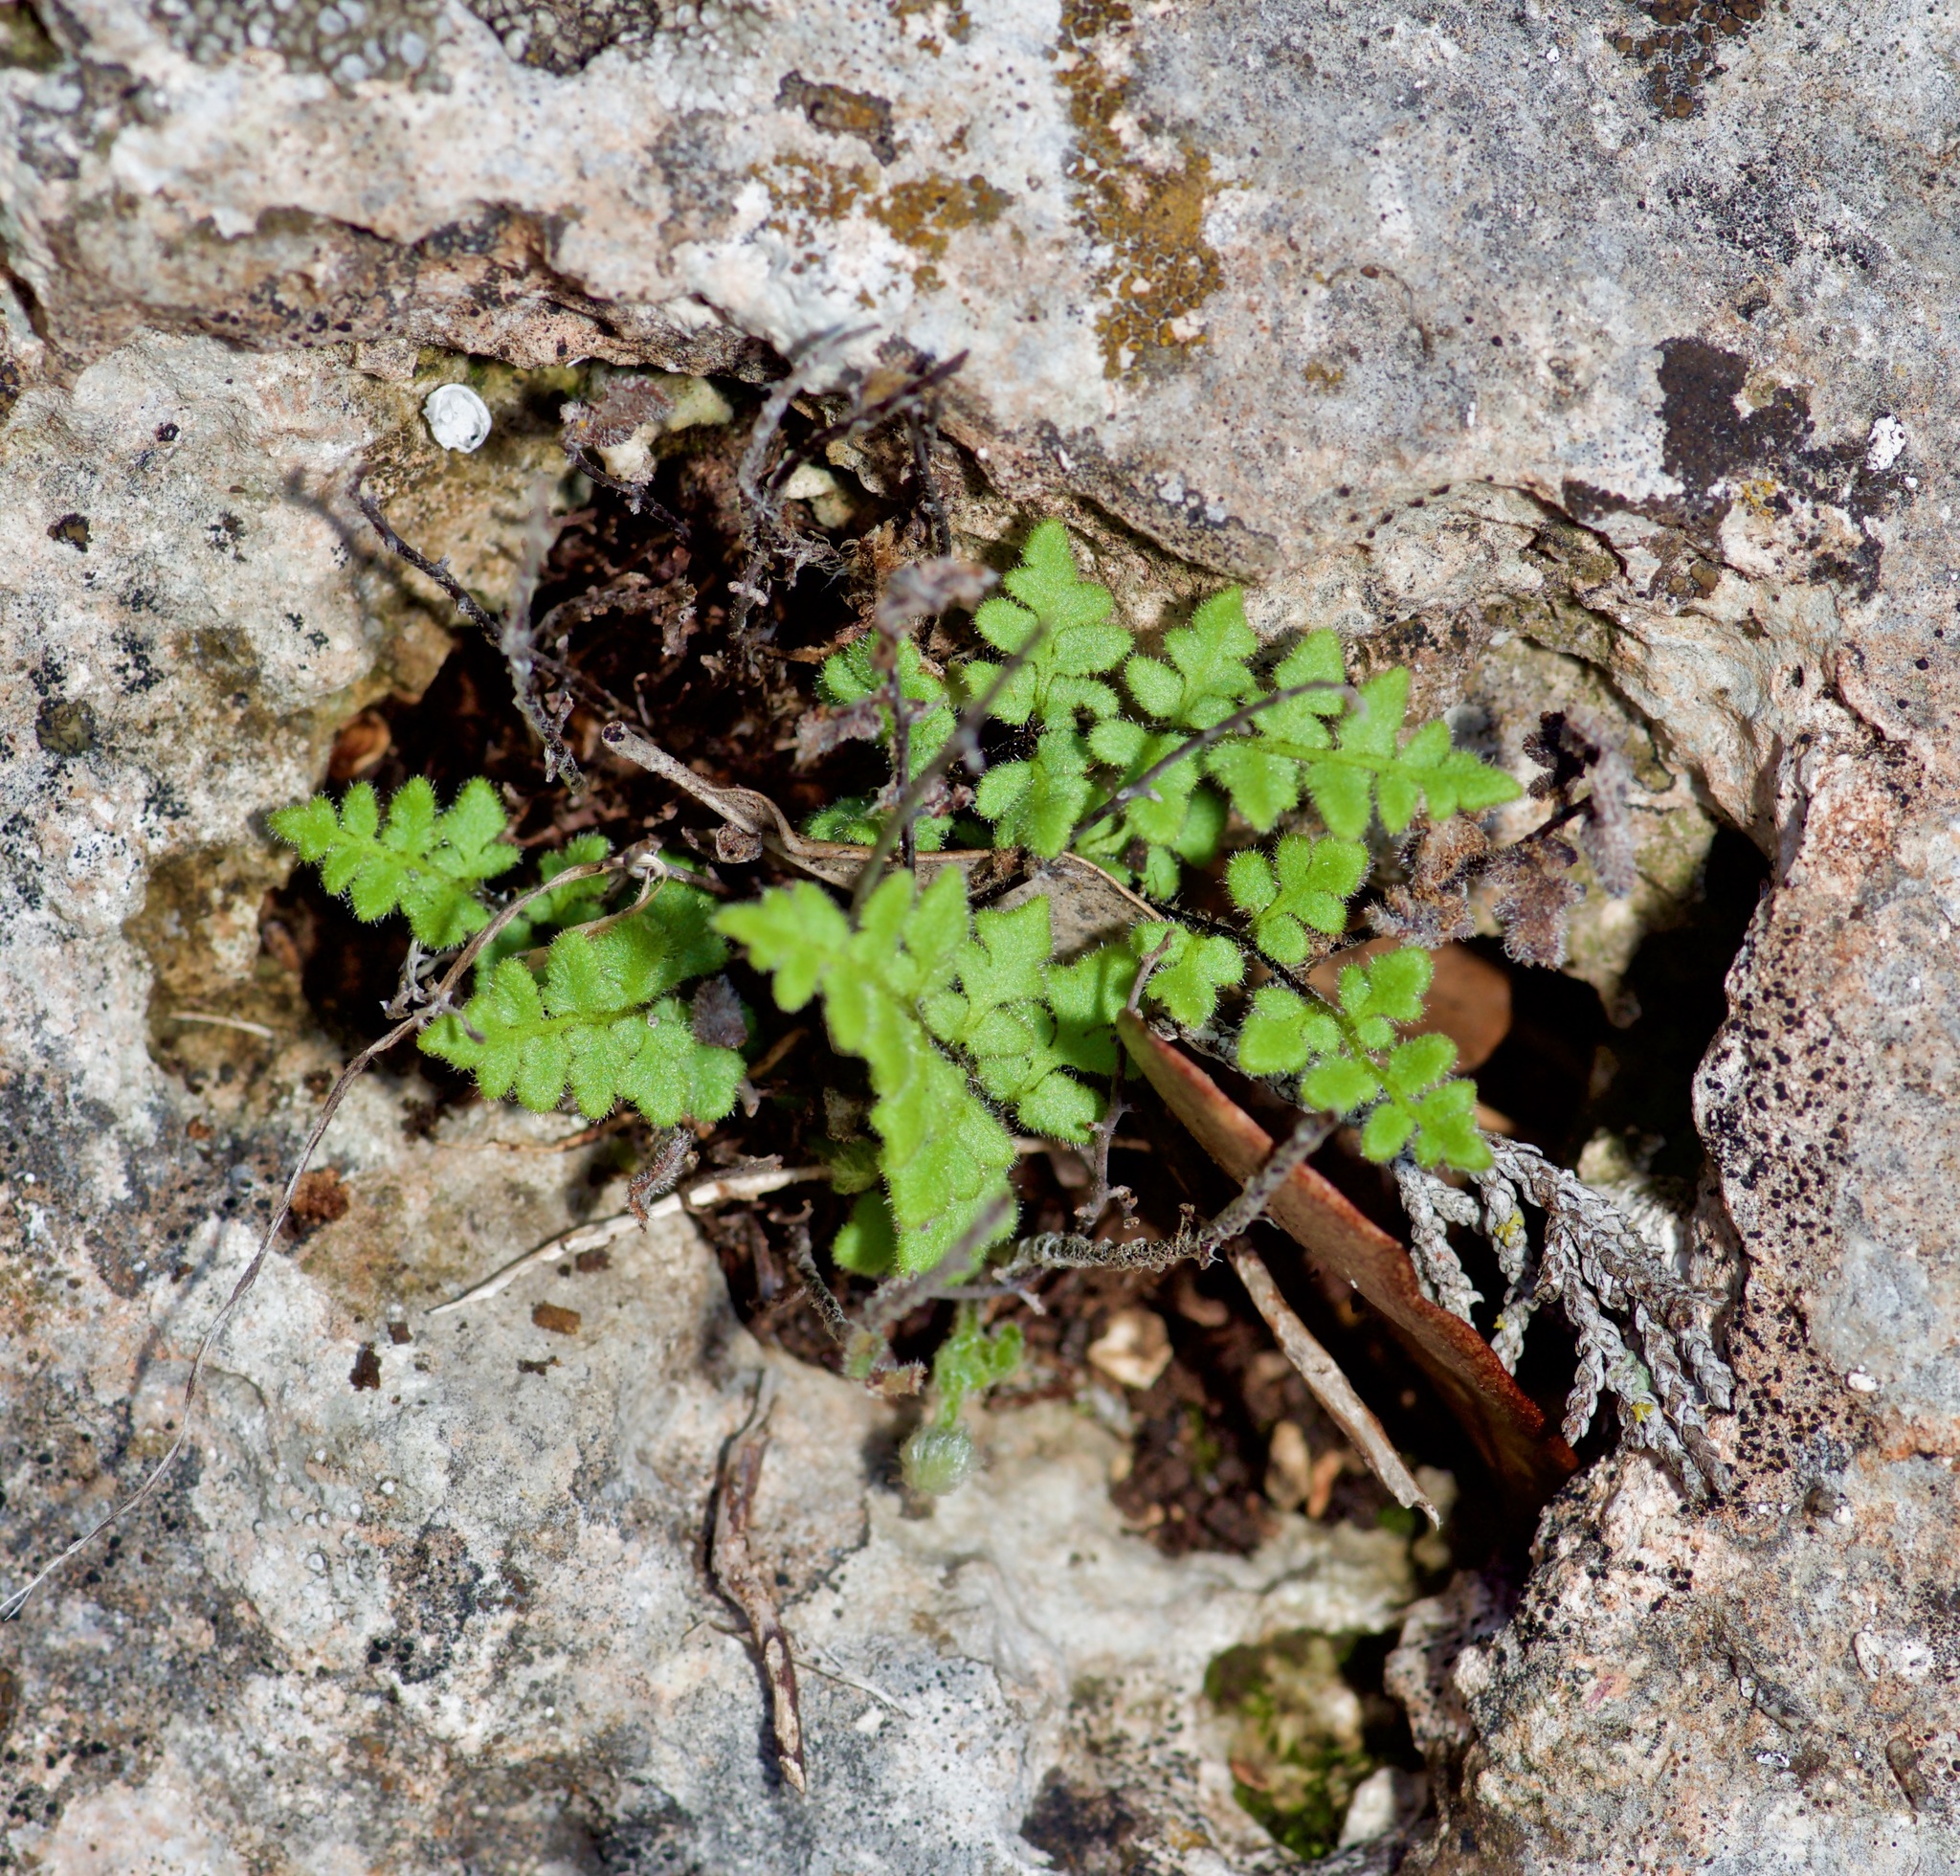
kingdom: Plantae
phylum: Tracheophyta
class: Polypodiopsida
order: Polypodiales
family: Pteridaceae
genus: Myriopteris
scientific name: Myriopteris scabra
